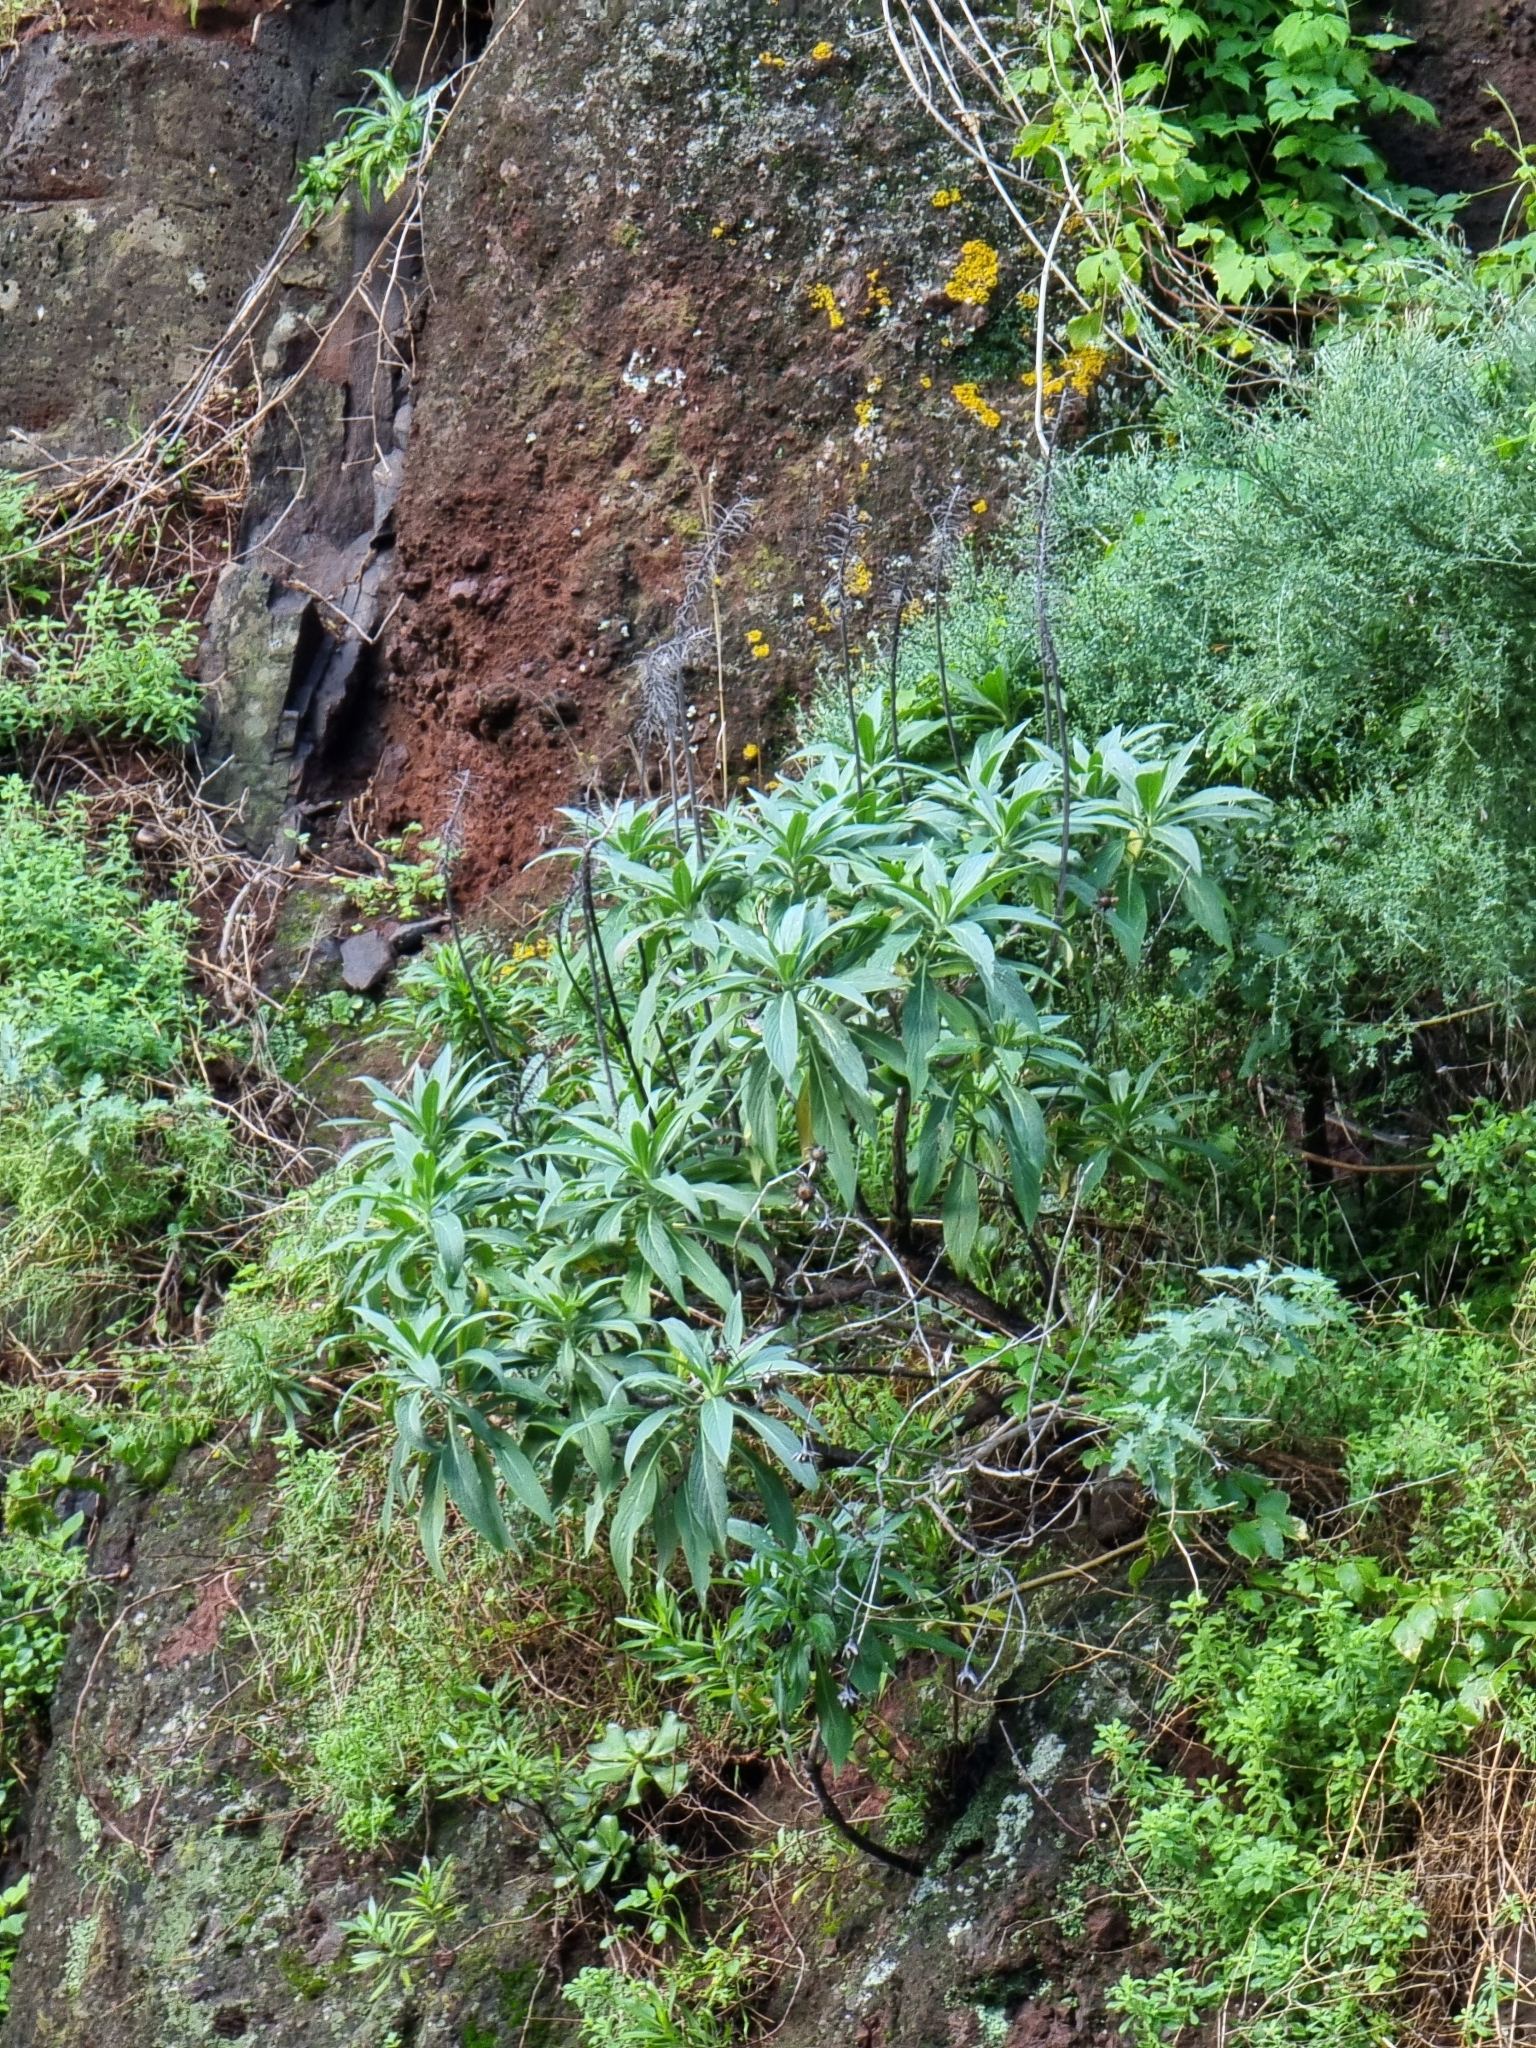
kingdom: Plantae
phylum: Tracheophyta
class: Magnoliopsida
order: Boraginales
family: Boraginaceae
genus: Echium
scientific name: Echium nervosum
